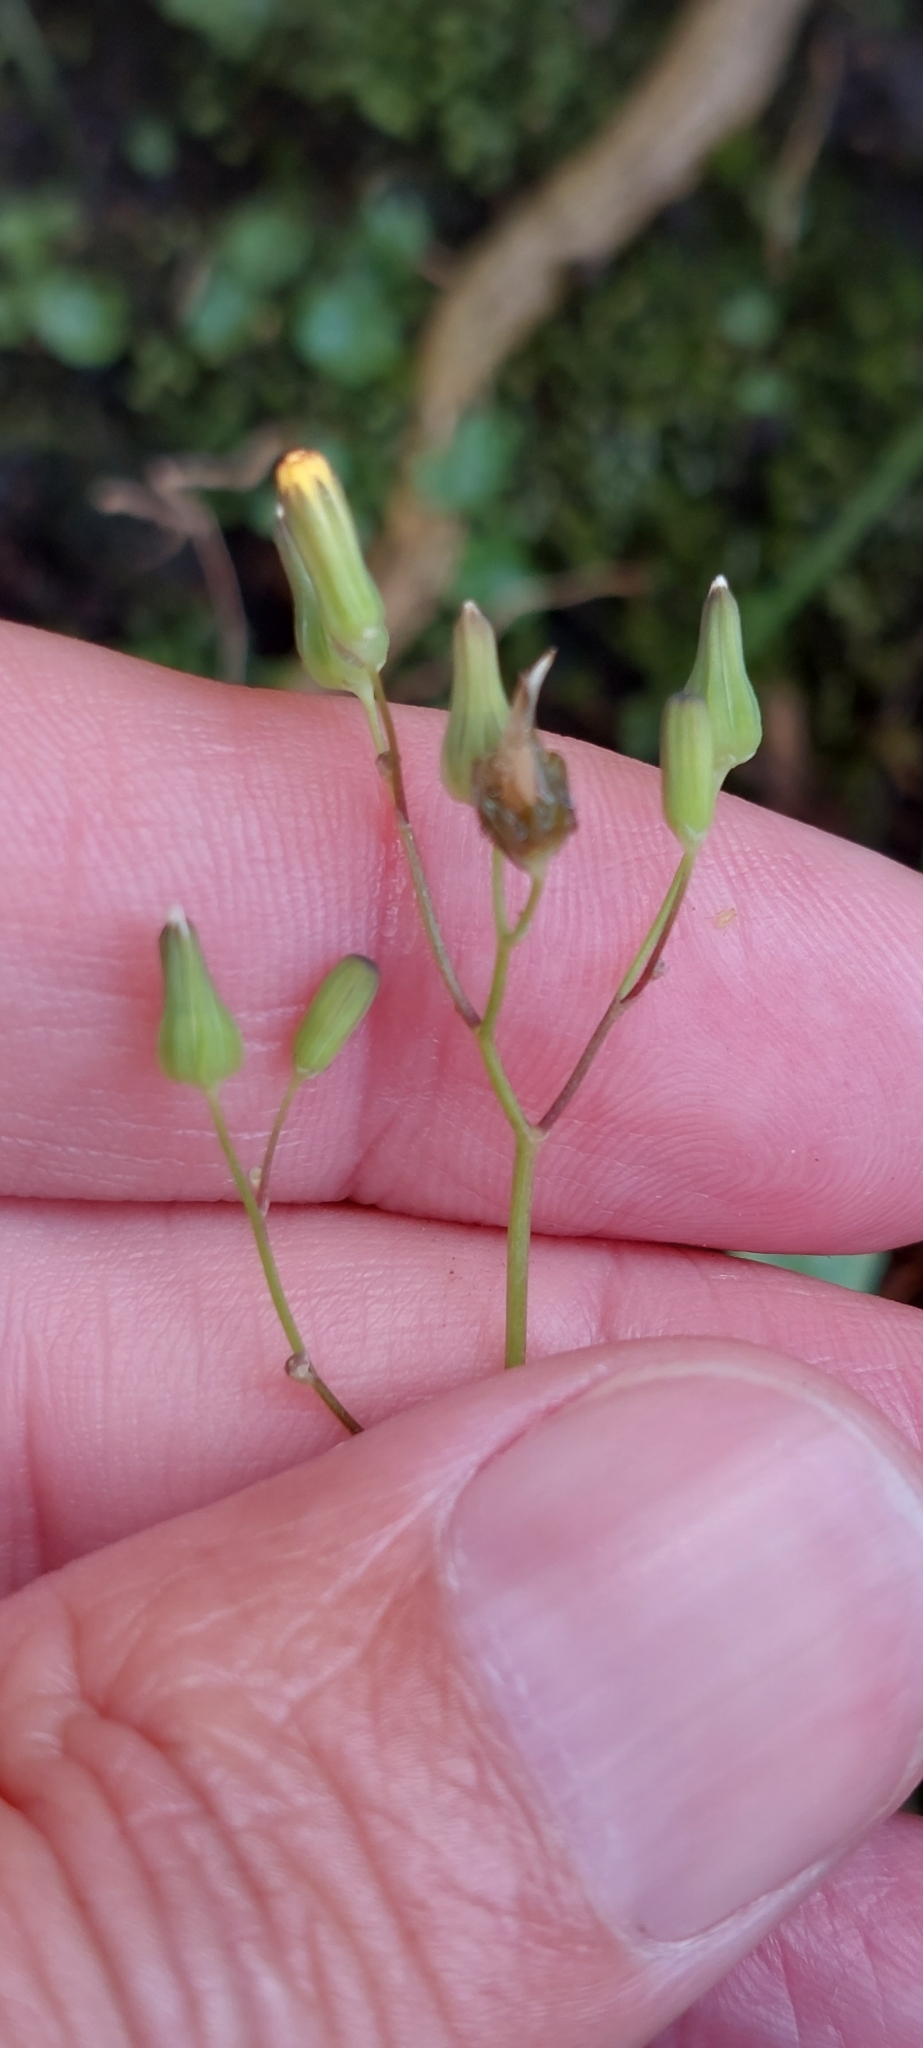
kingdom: Plantae
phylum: Tracheophyta
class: Magnoliopsida
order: Asterales
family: Asteraceae
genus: Youngia
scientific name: Youngia japonica
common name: Oriental false hawksbeard
